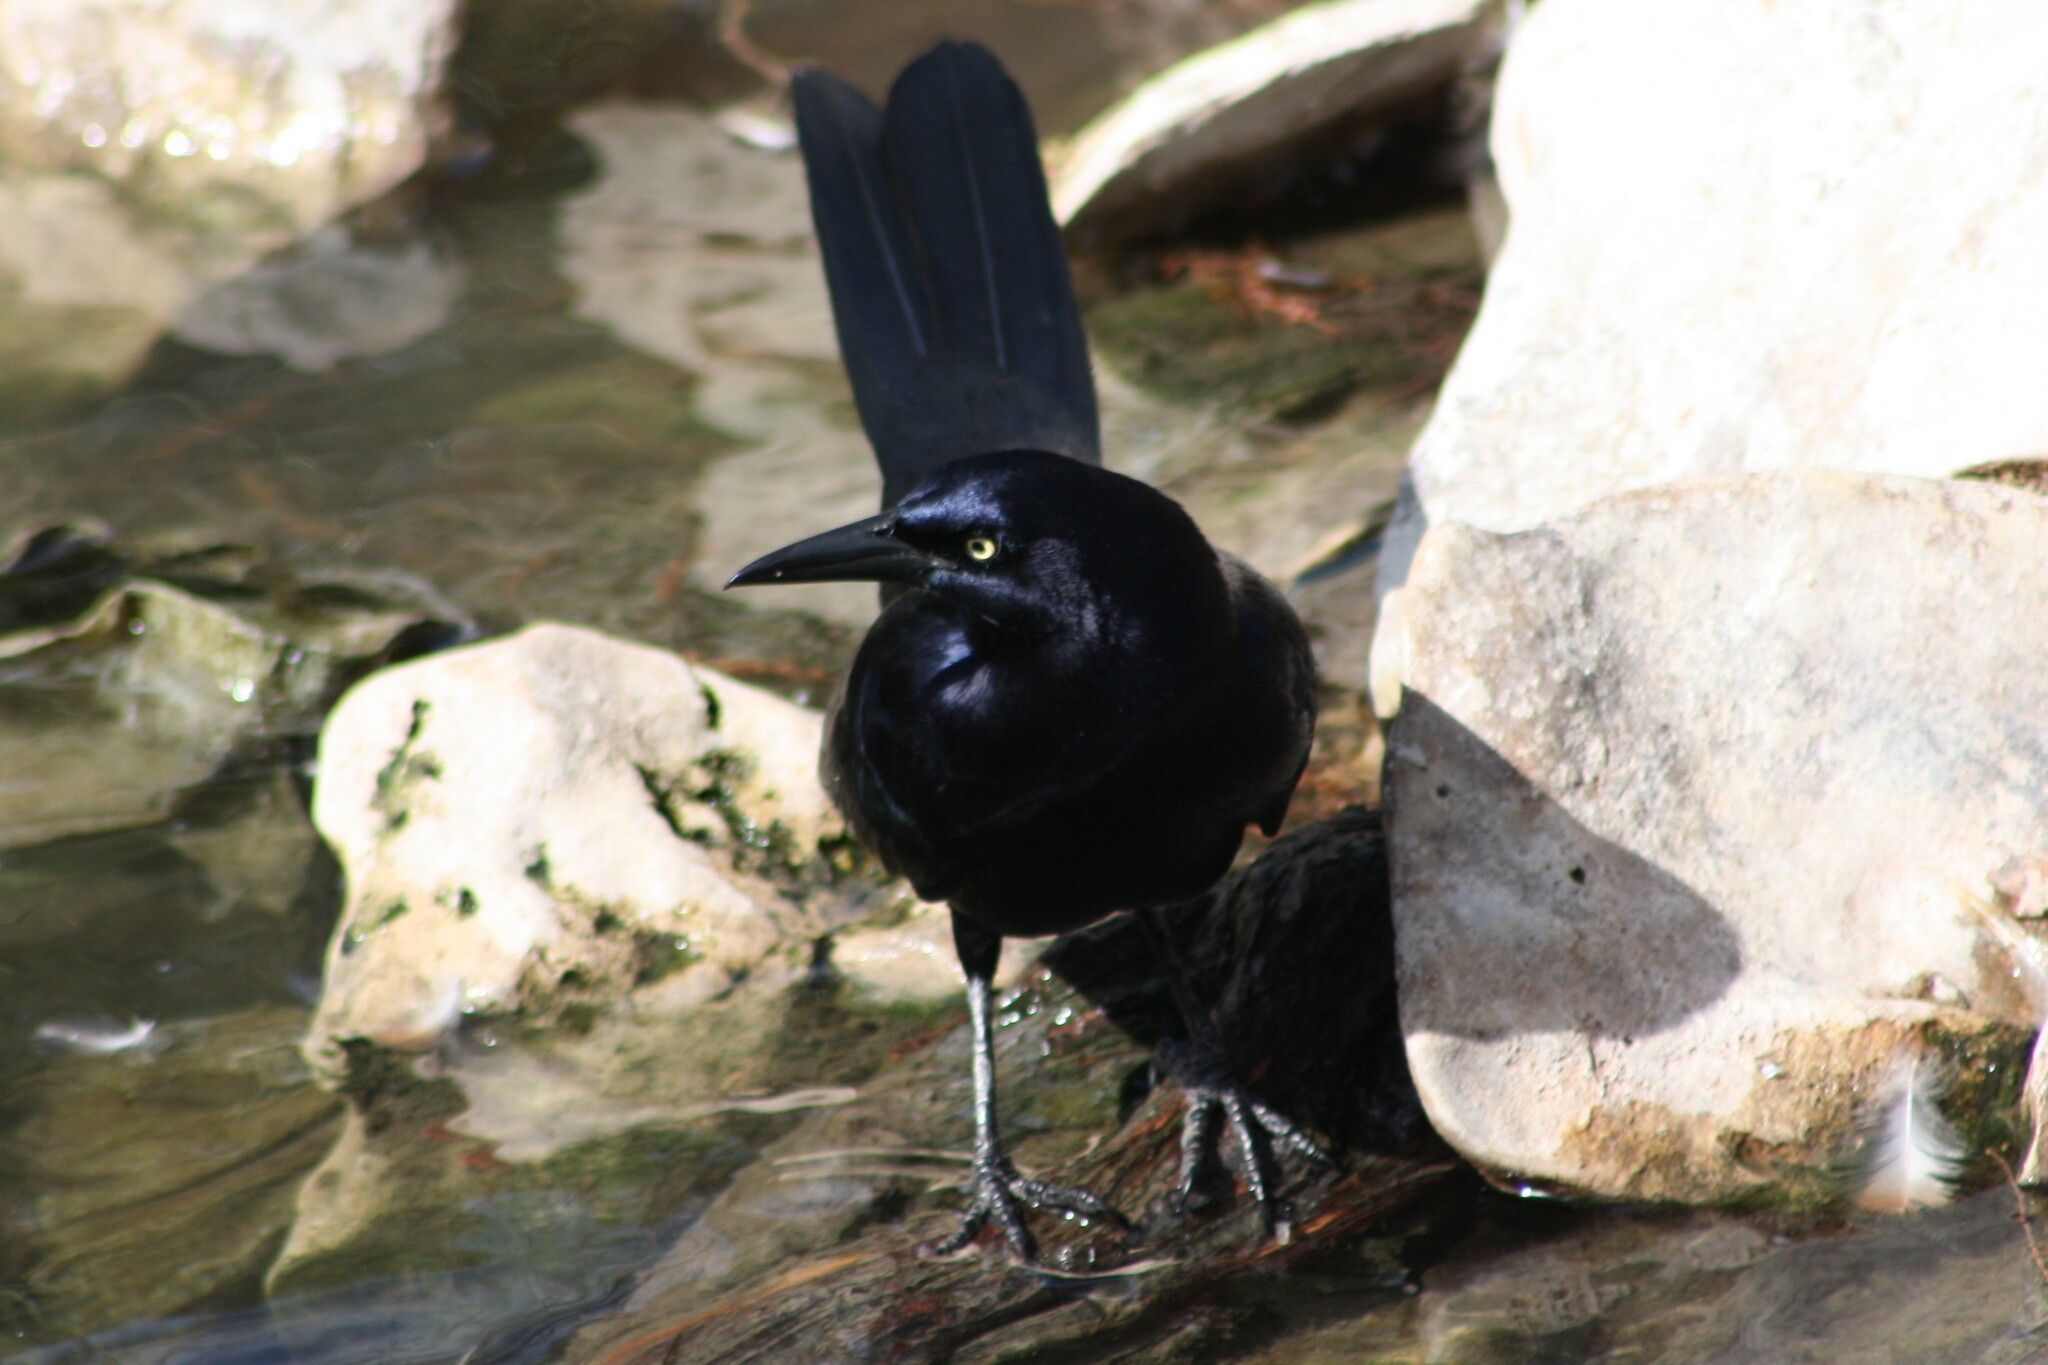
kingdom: Animalia
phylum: Chordata
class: Aves
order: Passeriformes
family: Icteridae
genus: Quiscalus
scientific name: Quiscalus mexicanus
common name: Great-tailed grackle
